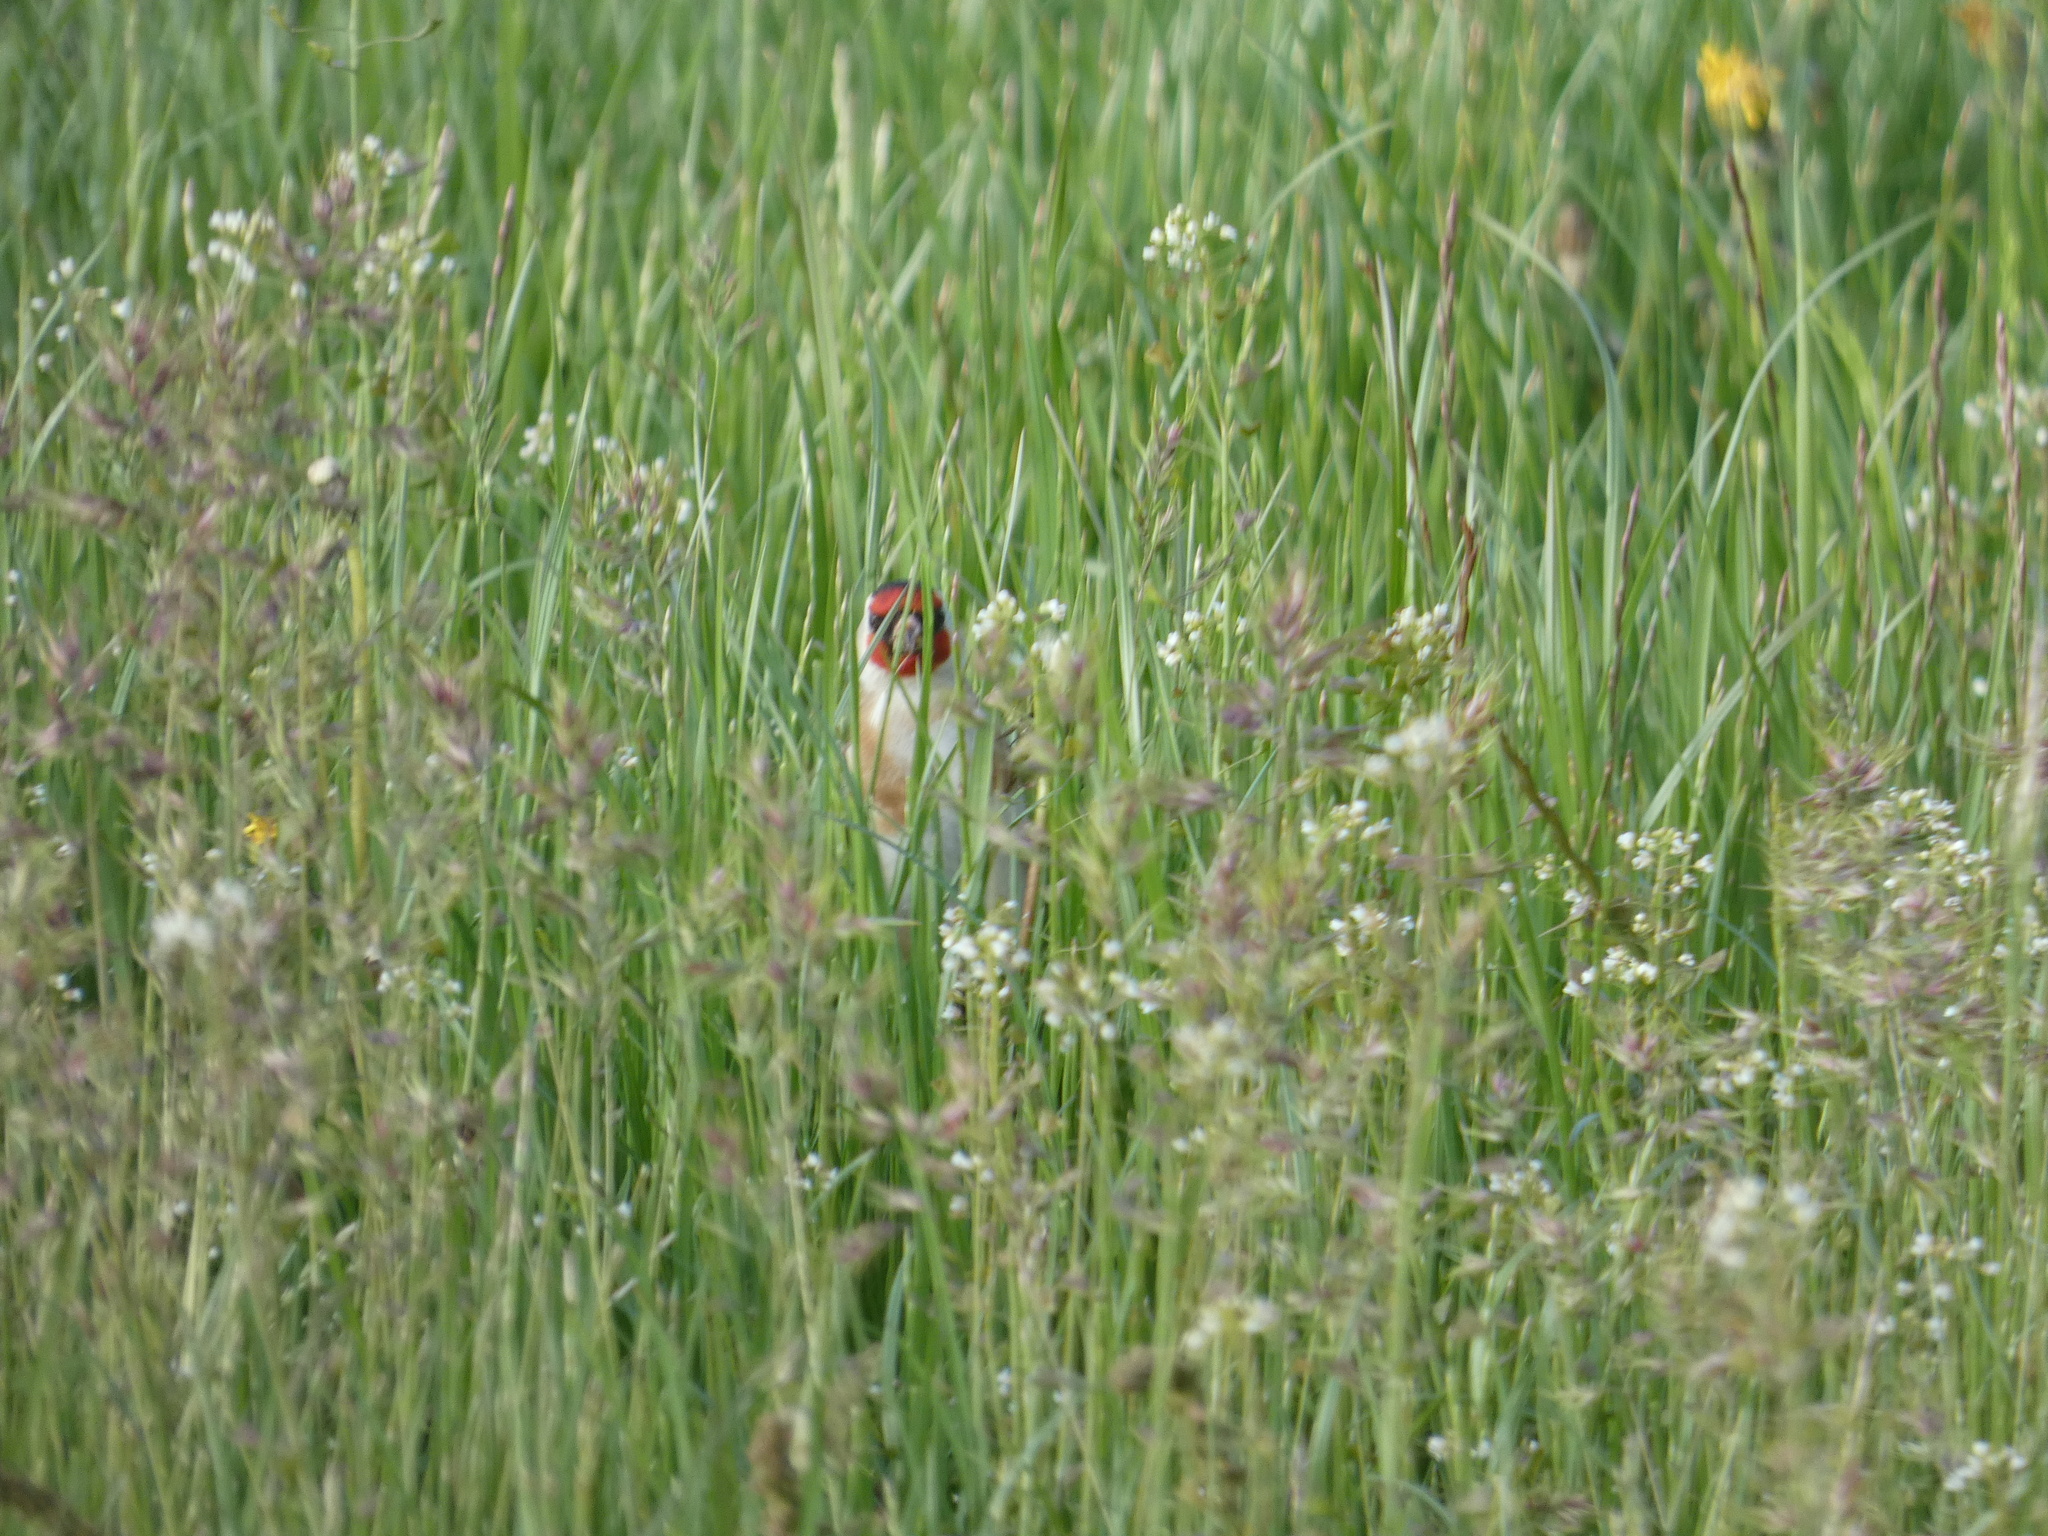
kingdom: Animalia
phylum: Chordata
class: Aves
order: Passeriformes
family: Fringillidae
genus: Carduelis
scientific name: Carduelis carduelis
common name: European goldfinch
